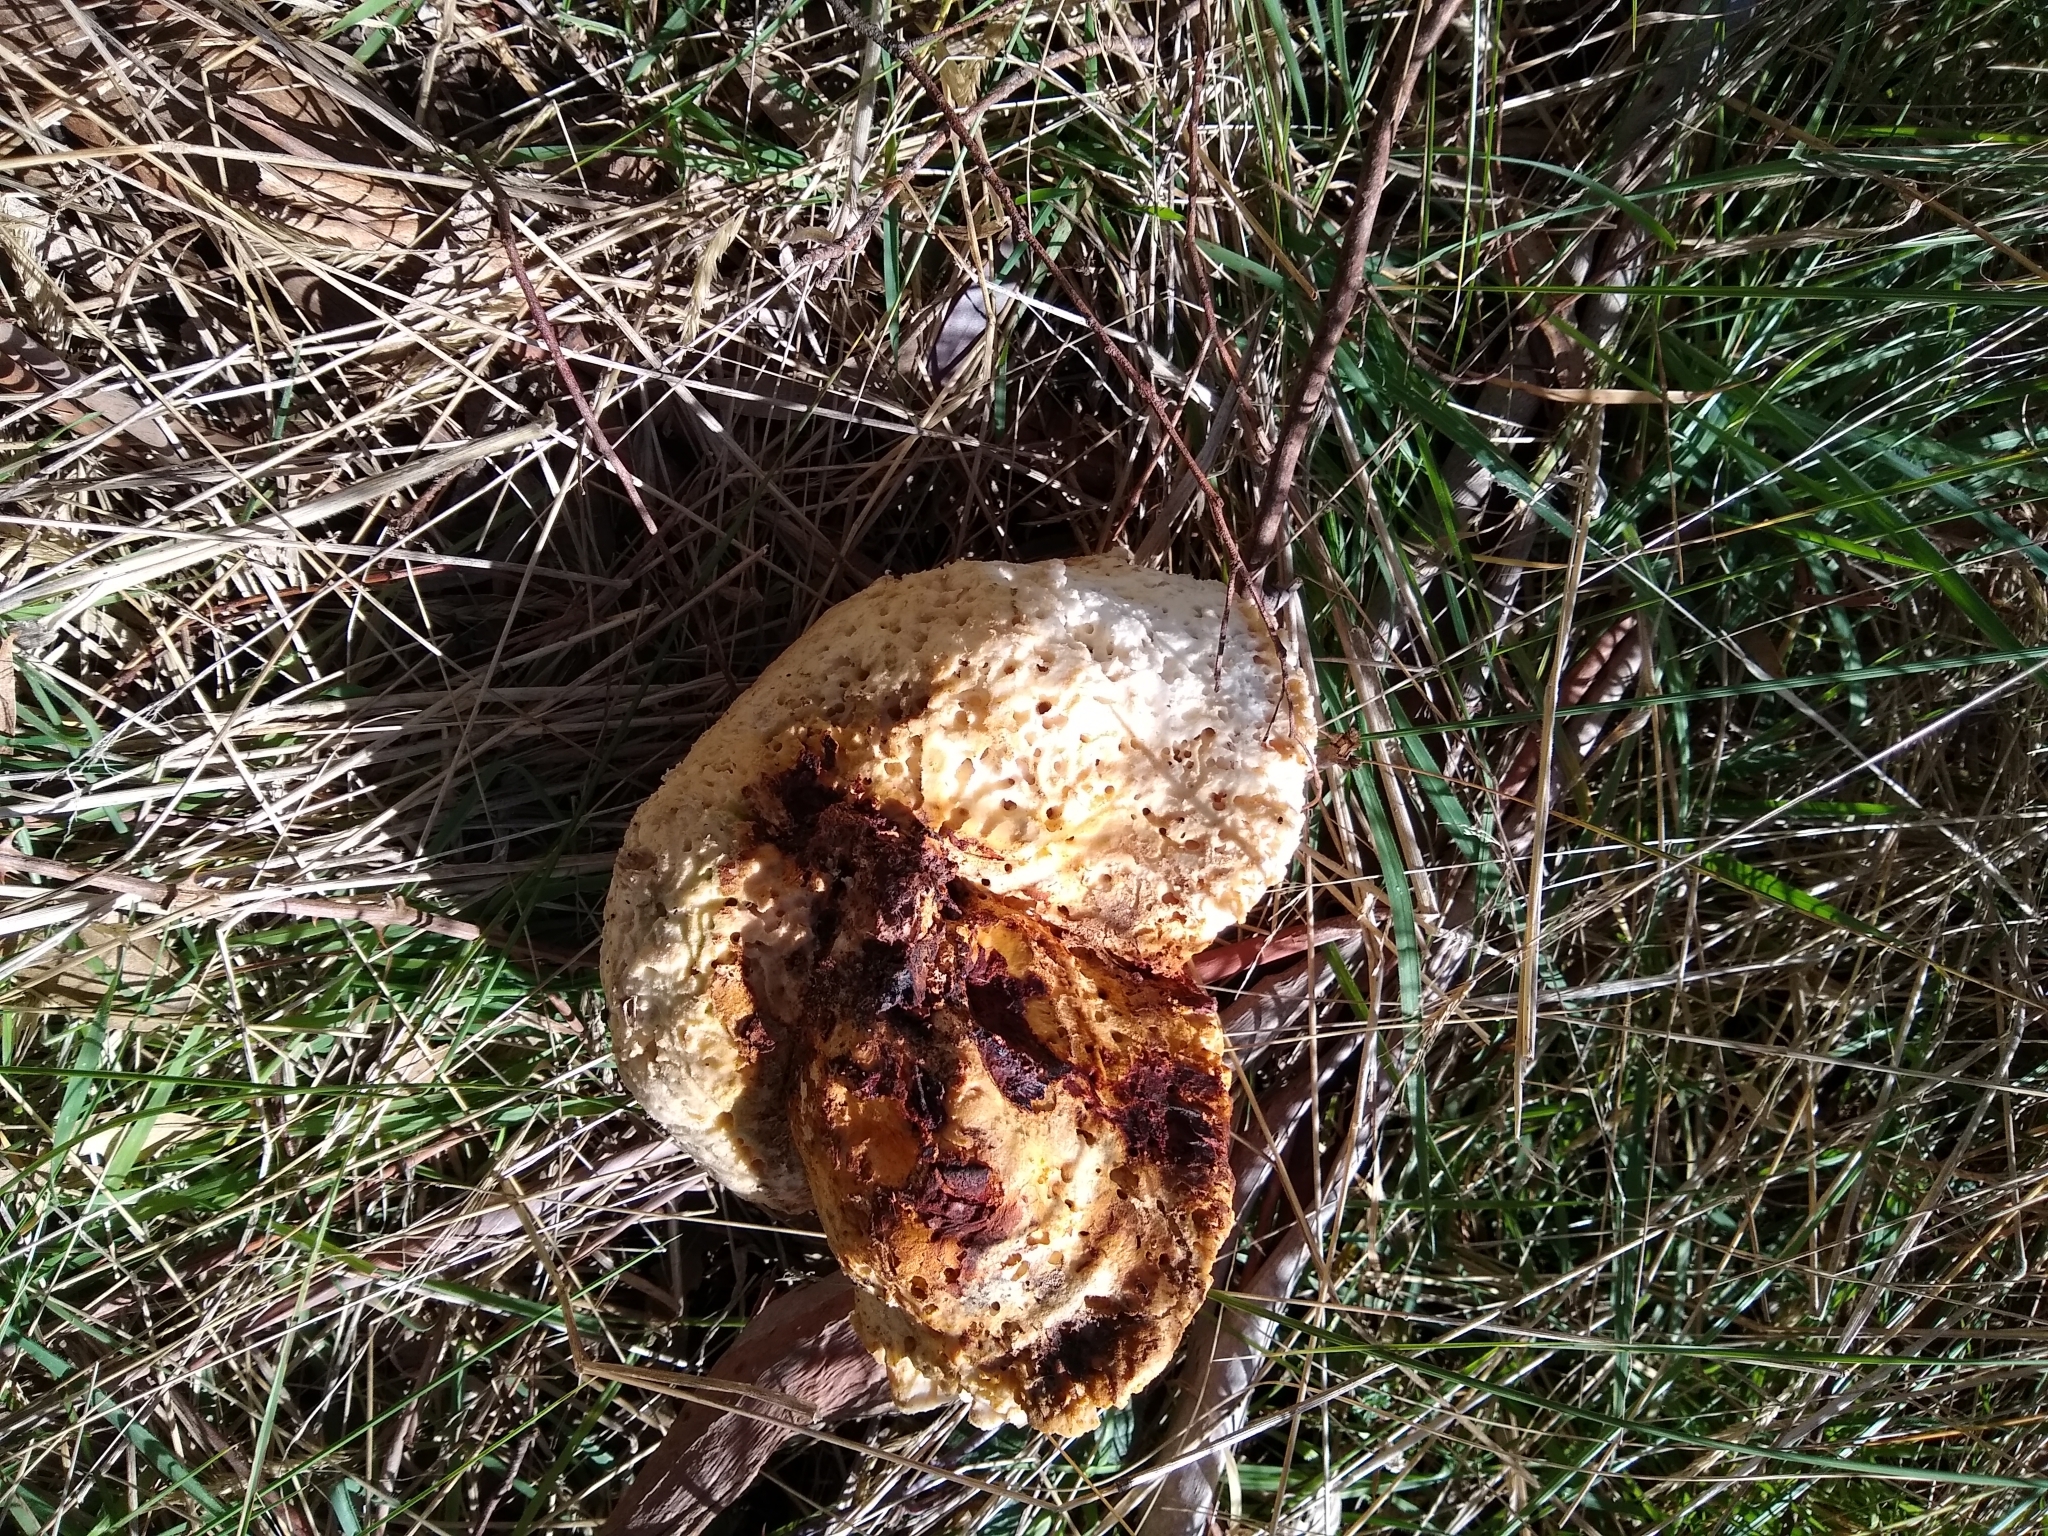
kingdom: Fungi
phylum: Basidiomycota
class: Agaricomycetes
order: Polyporales
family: Laetiporaceae
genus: Laetiporus
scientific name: Laetiporus portentosus
